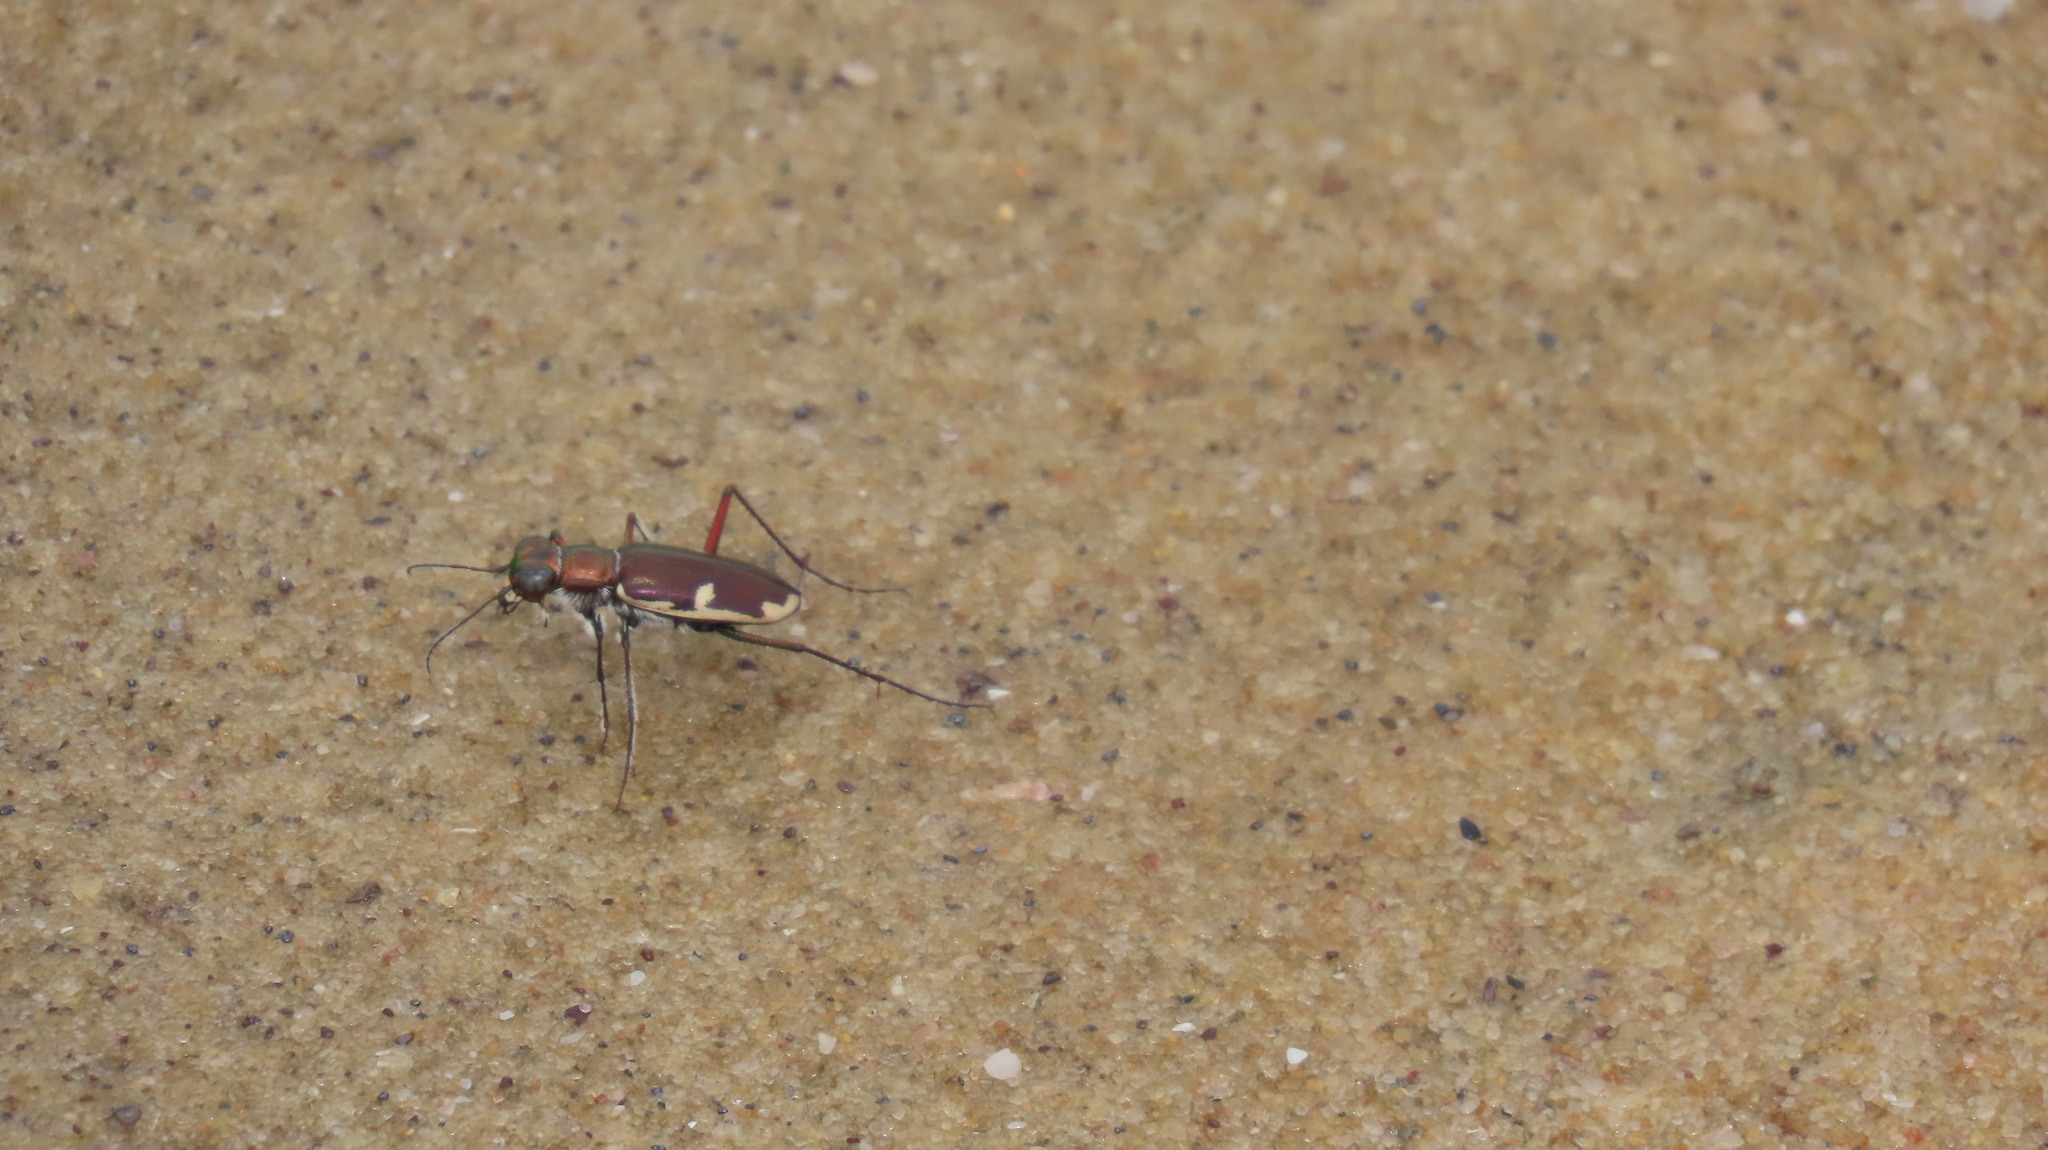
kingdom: Animalia
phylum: Arthropoda
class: Insecta
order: Coleoptera
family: Carabidae
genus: Hypaetha
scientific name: Hypaetha biramosa
